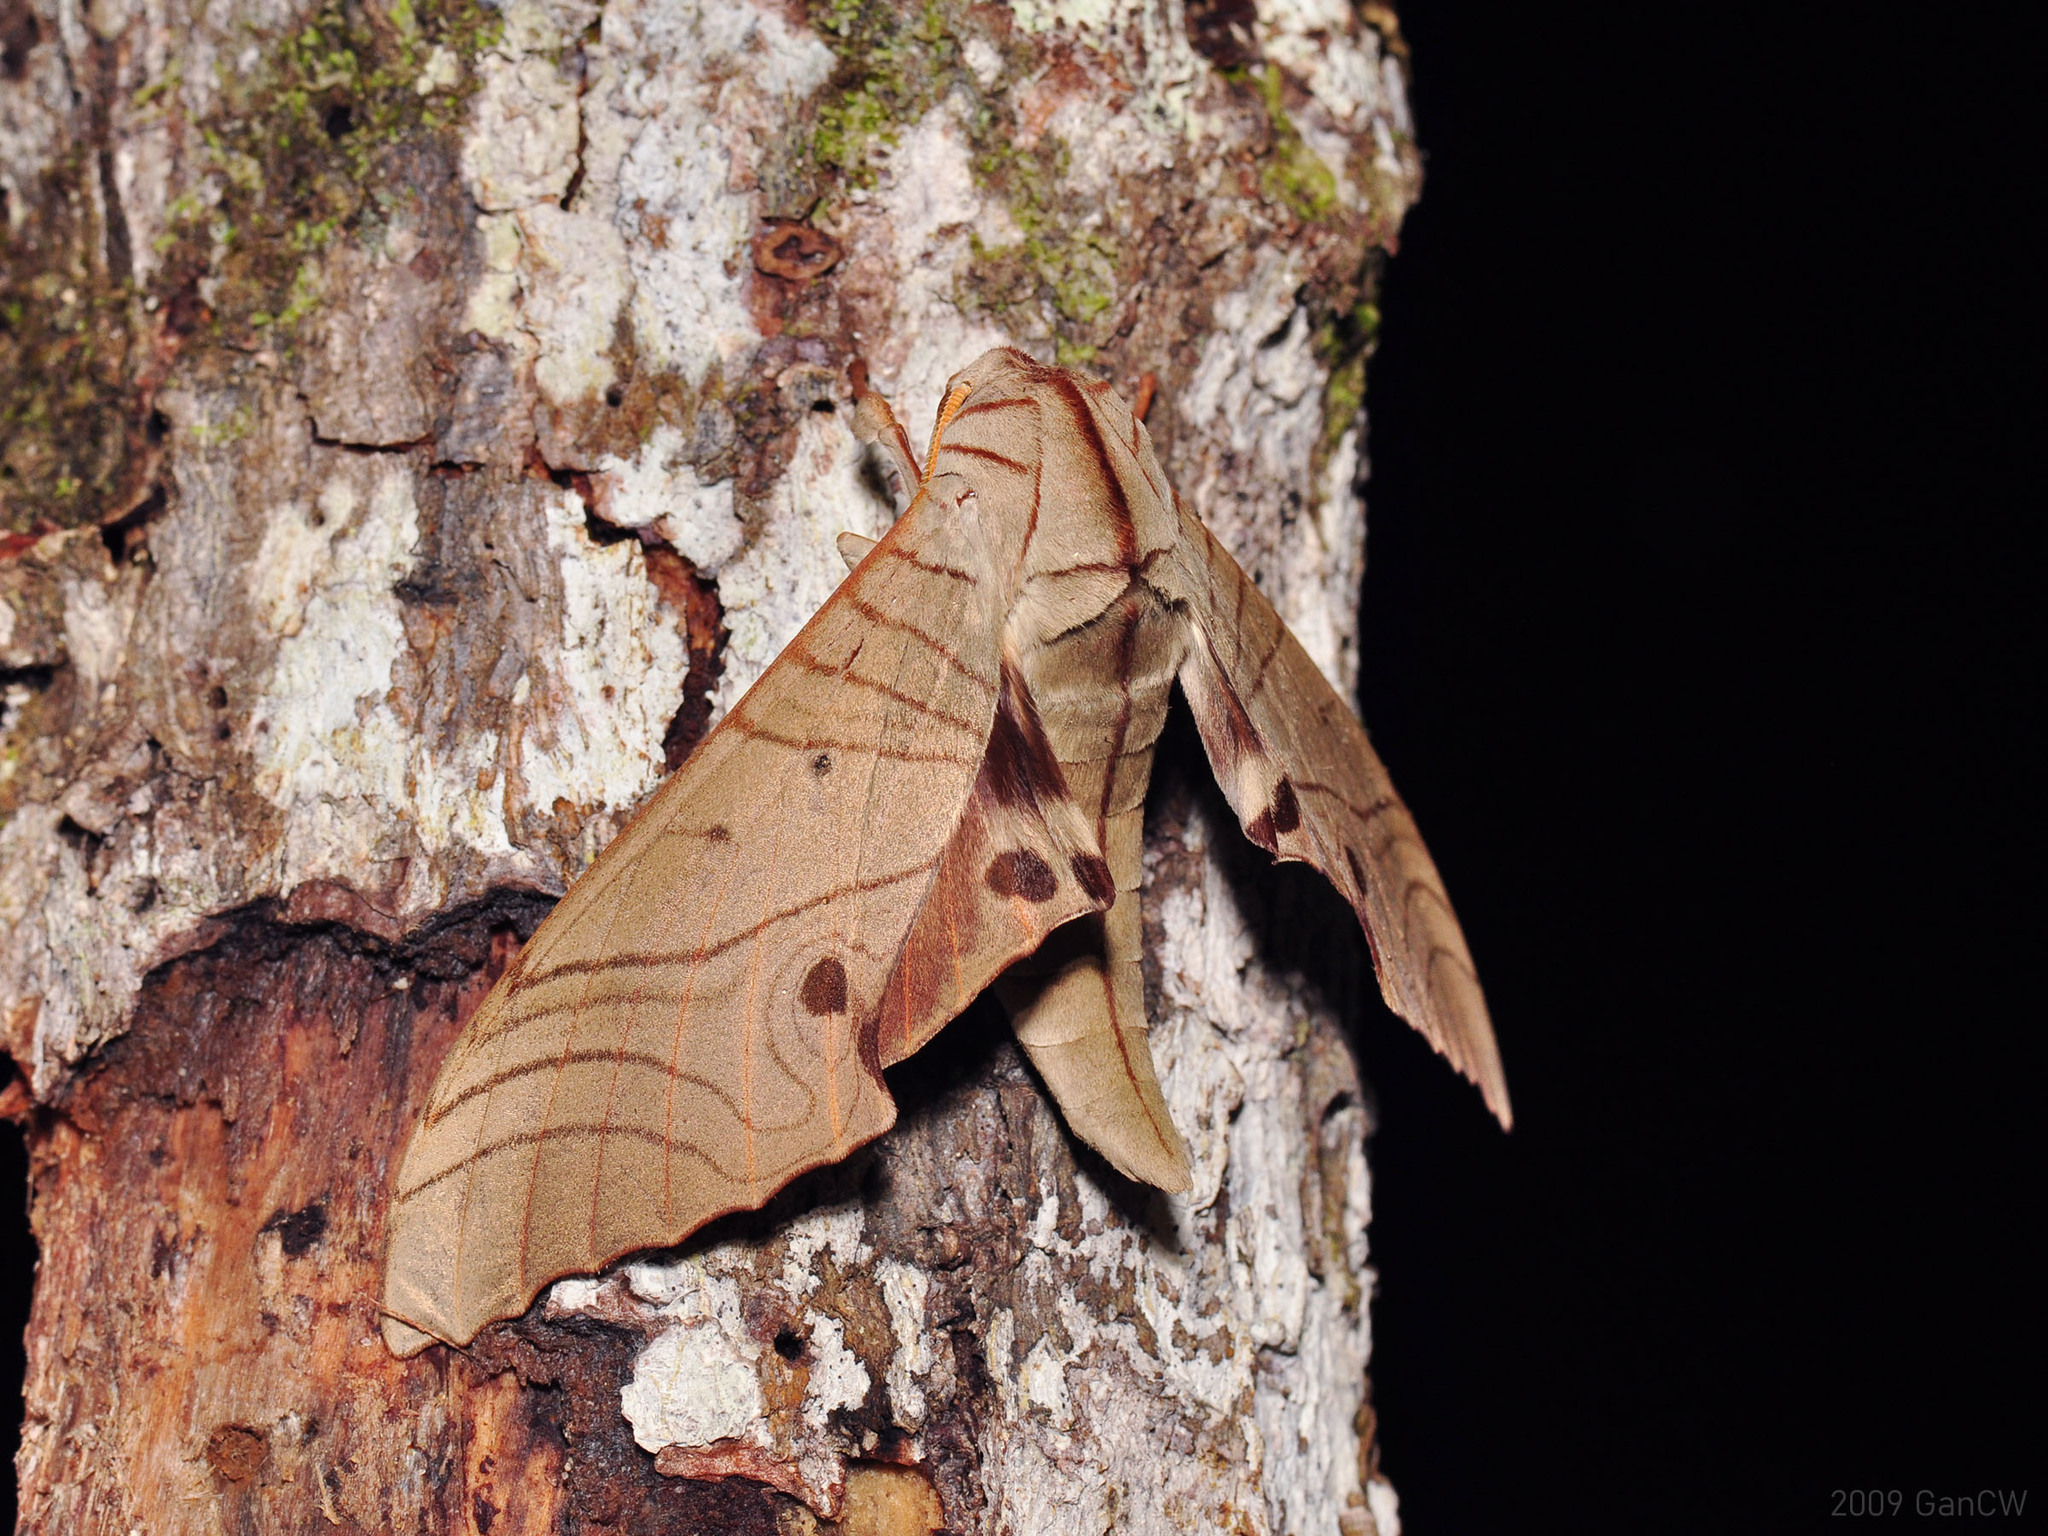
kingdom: Animalia
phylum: Arthropoda
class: Insecta
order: Lepidoptera
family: Sphingidae
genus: Marumba
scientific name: Marumba sperchius
